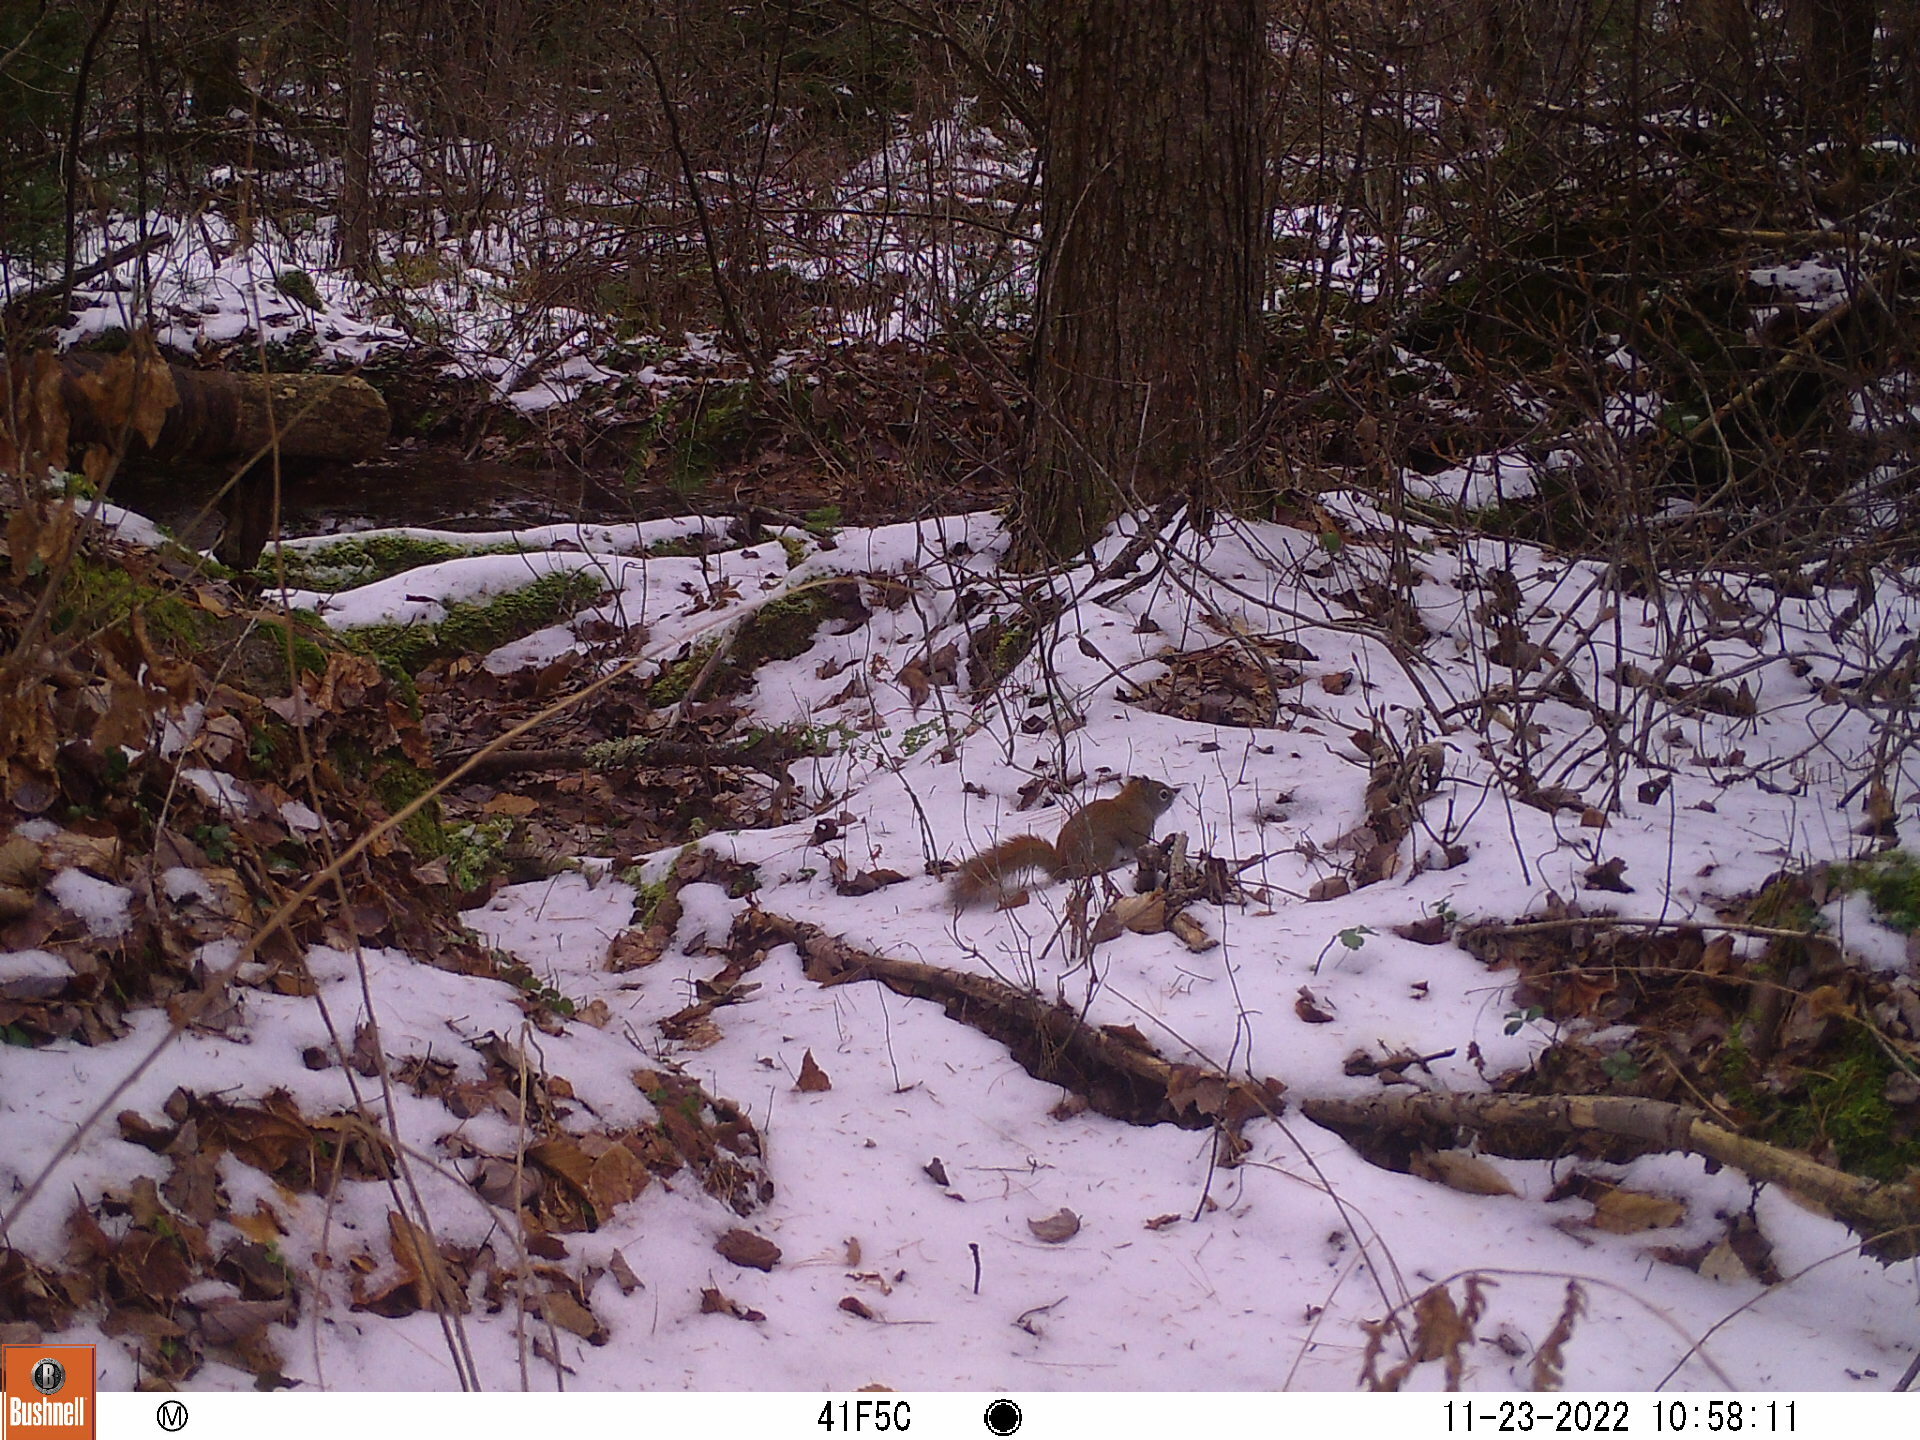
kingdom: Animalia
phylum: Chordata
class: Mammalia
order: Rodentia
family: Sciuridae
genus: Tamiasciurus
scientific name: Tamiasciurus hudsonicus
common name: Red squirrel
